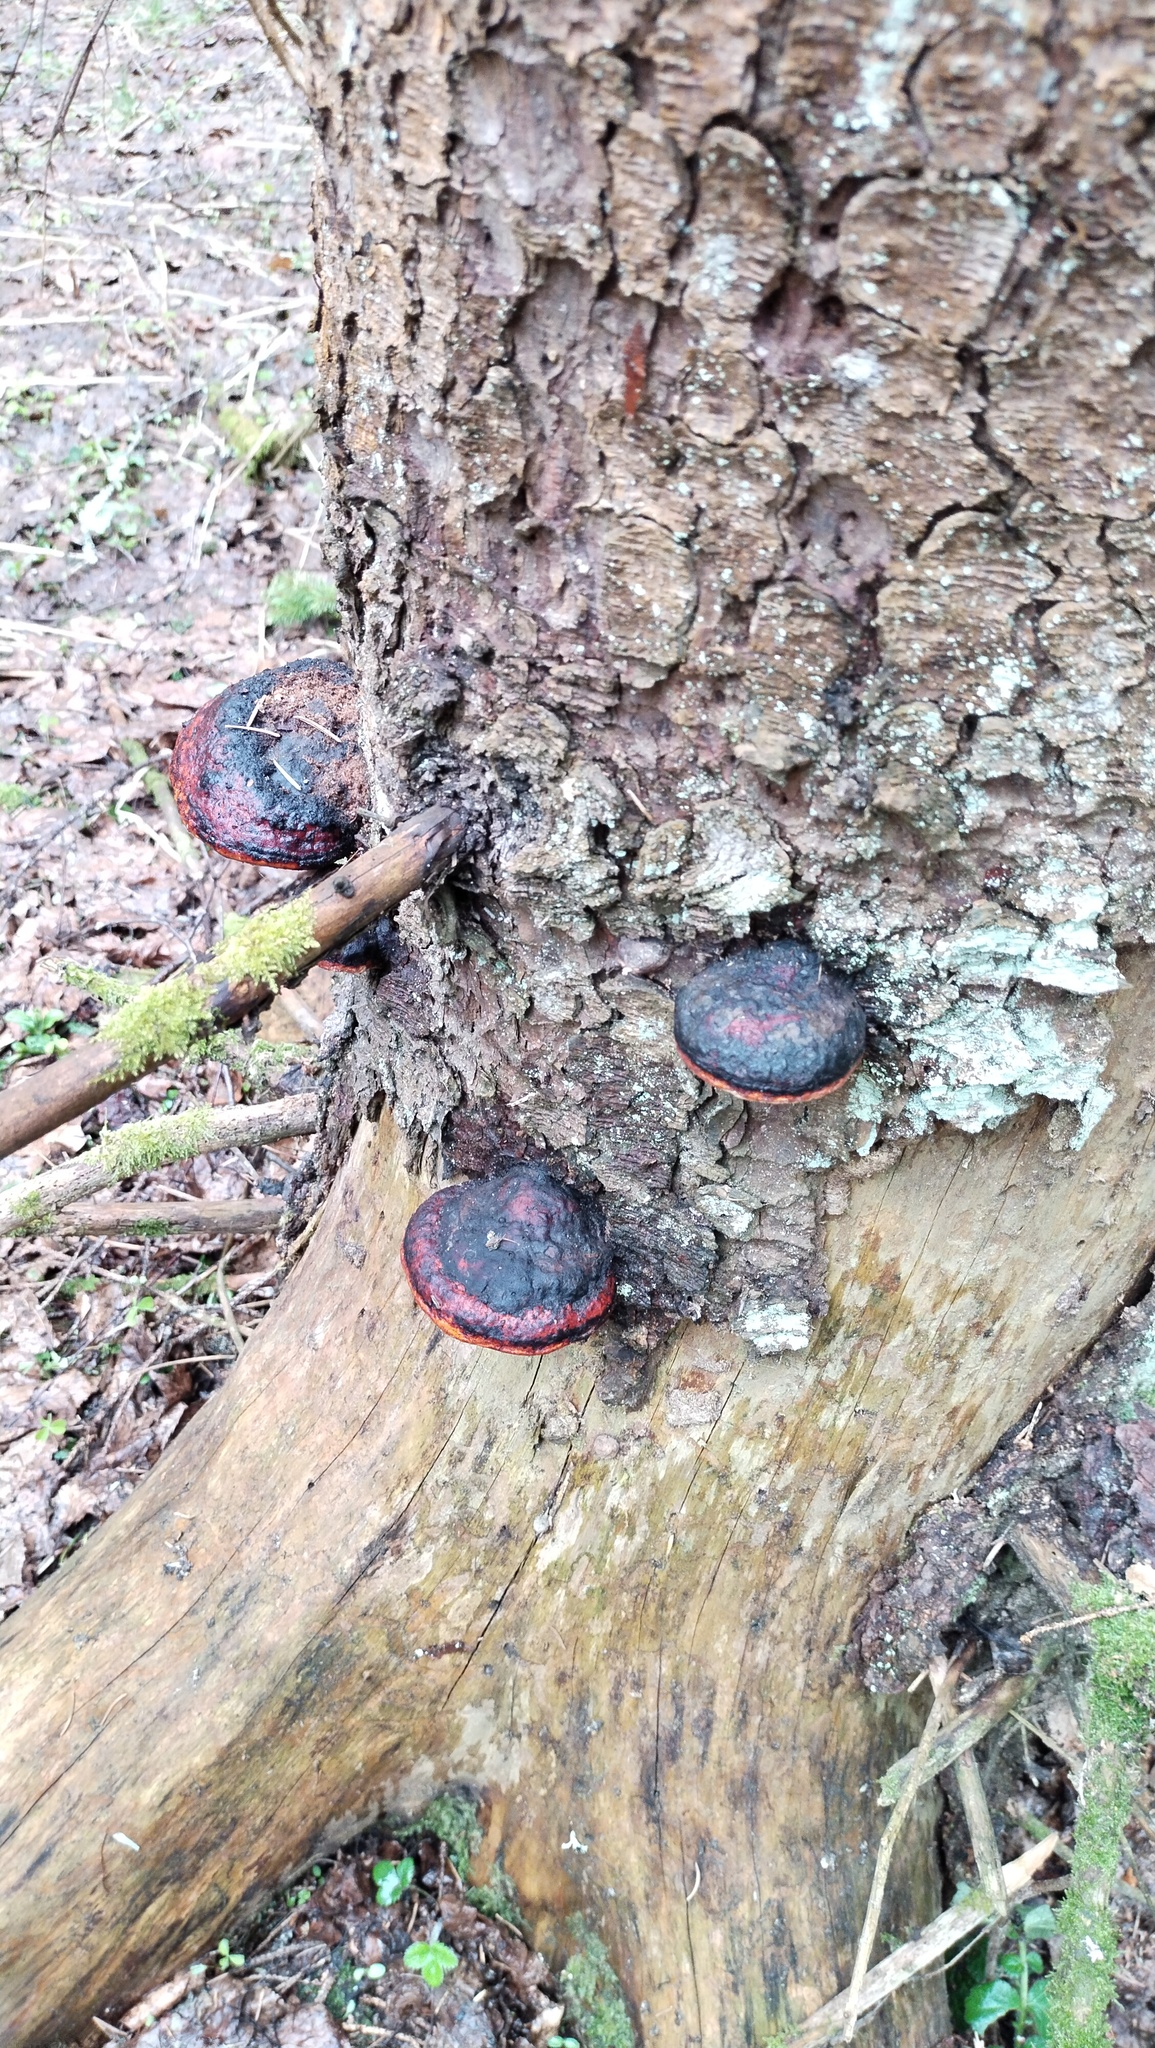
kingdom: Fungi
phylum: Basidiomycota
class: Agaricomycetes
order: Polyporales
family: Fomitopsidaceae
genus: Fomitopsis
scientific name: Fomitopsis pinicola
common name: Red-belted bracket
